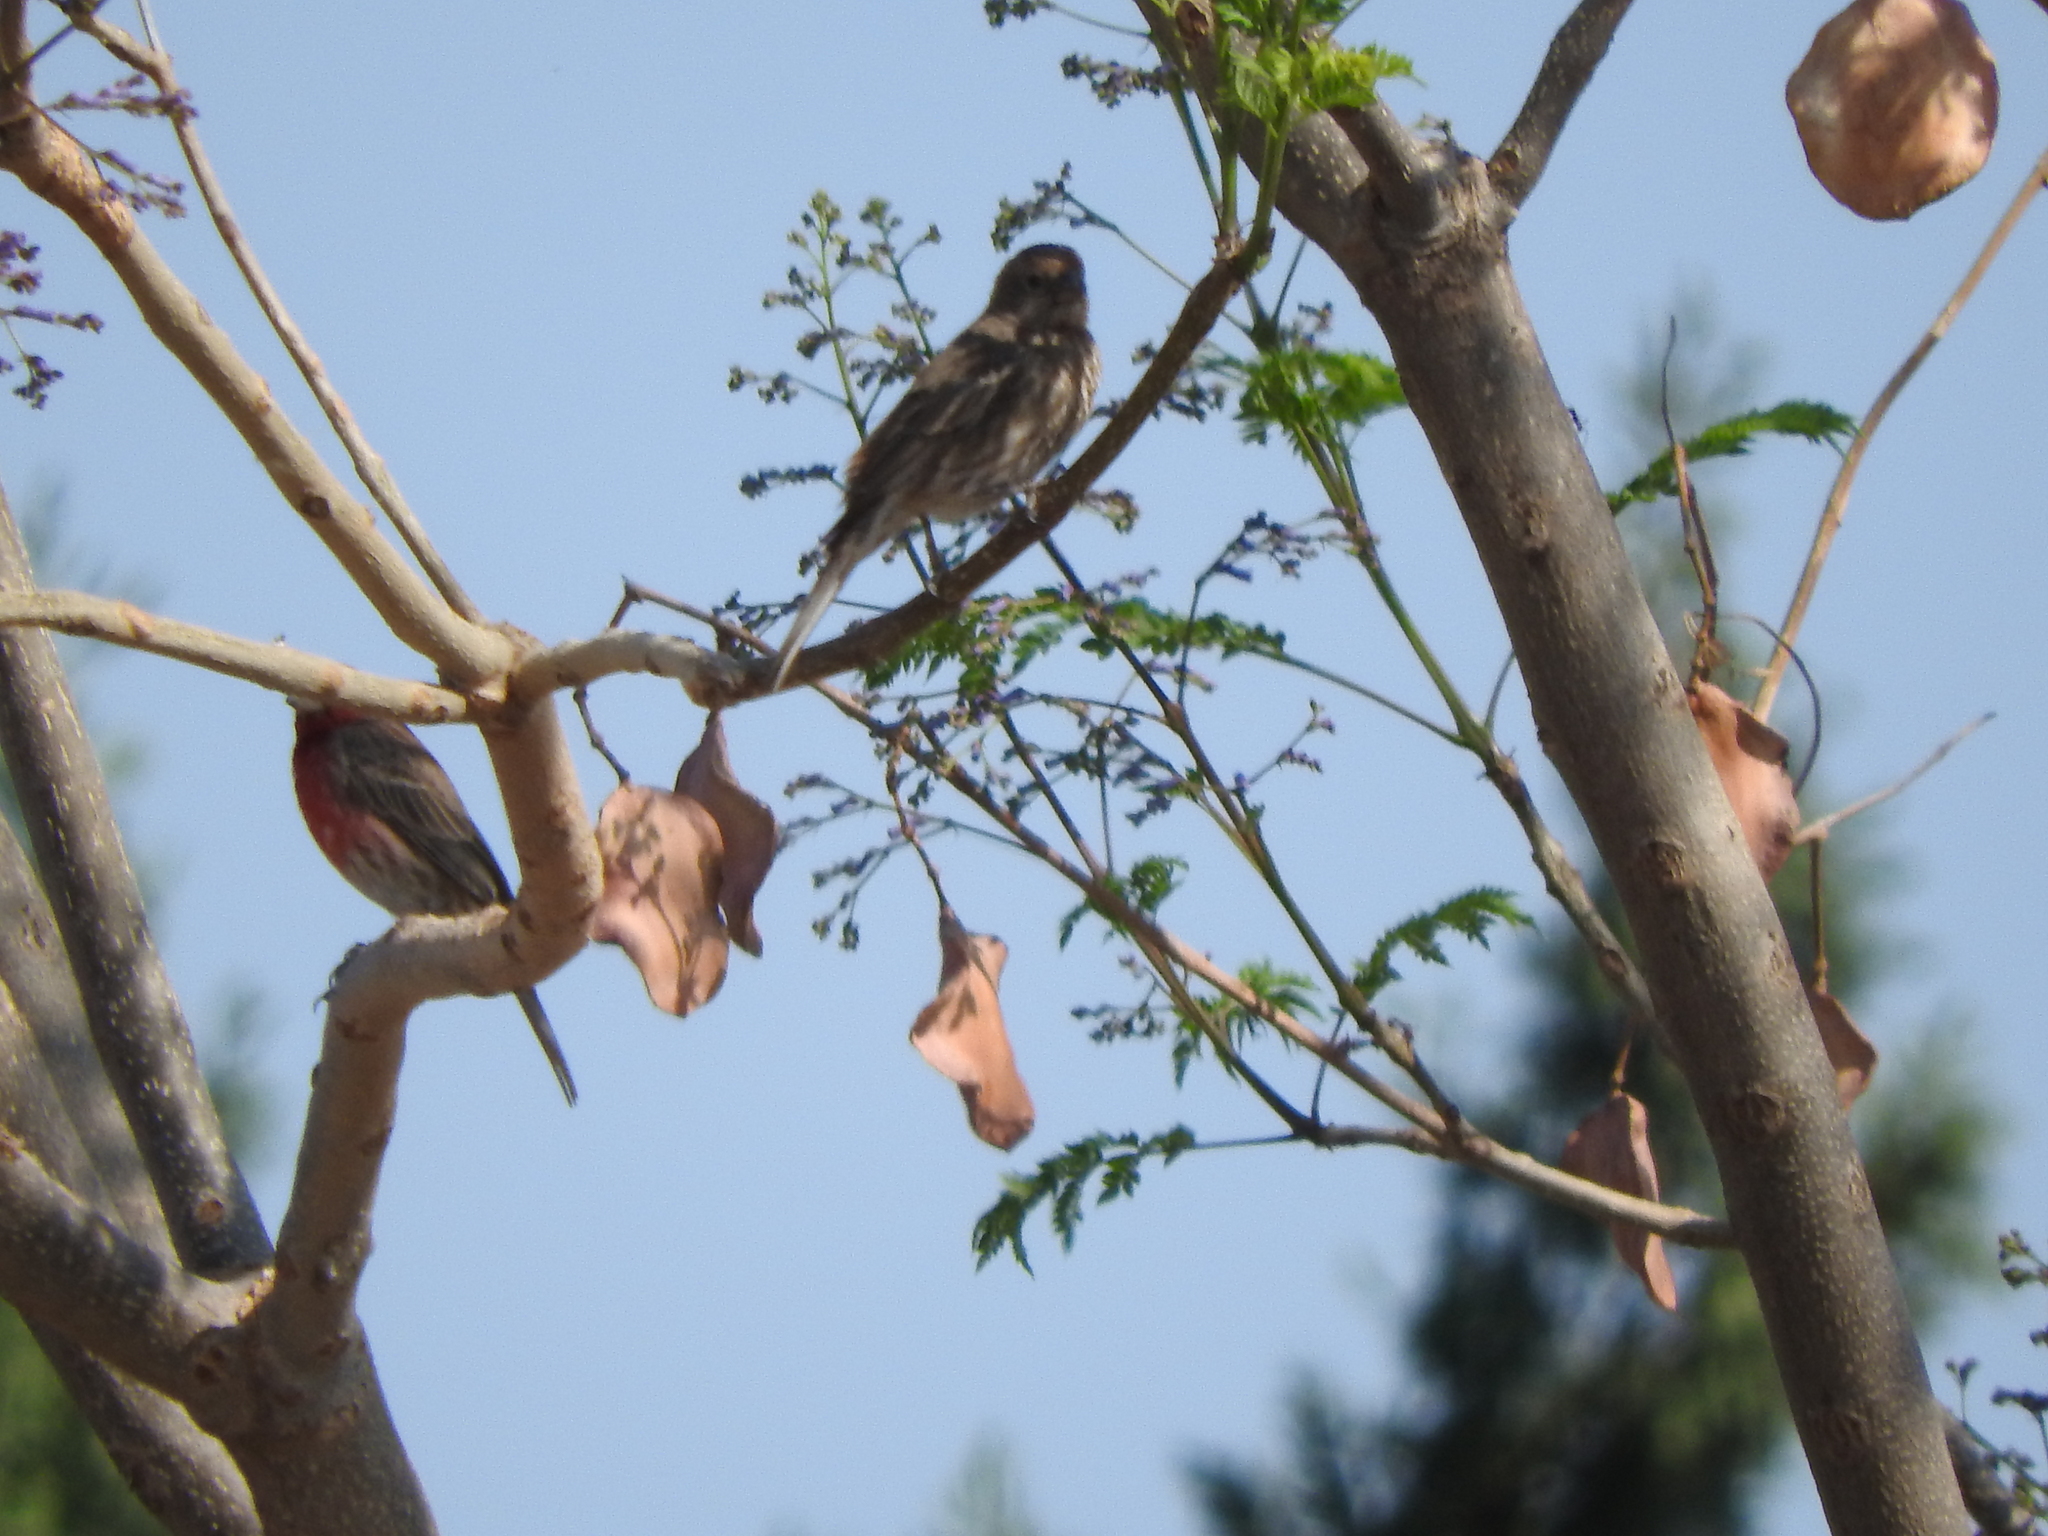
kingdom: Animalia
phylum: Chordata
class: Aves
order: Passeriformes
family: Fringillidae
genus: Haemorhous
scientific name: Haemorhous mexicanus
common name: House finch
